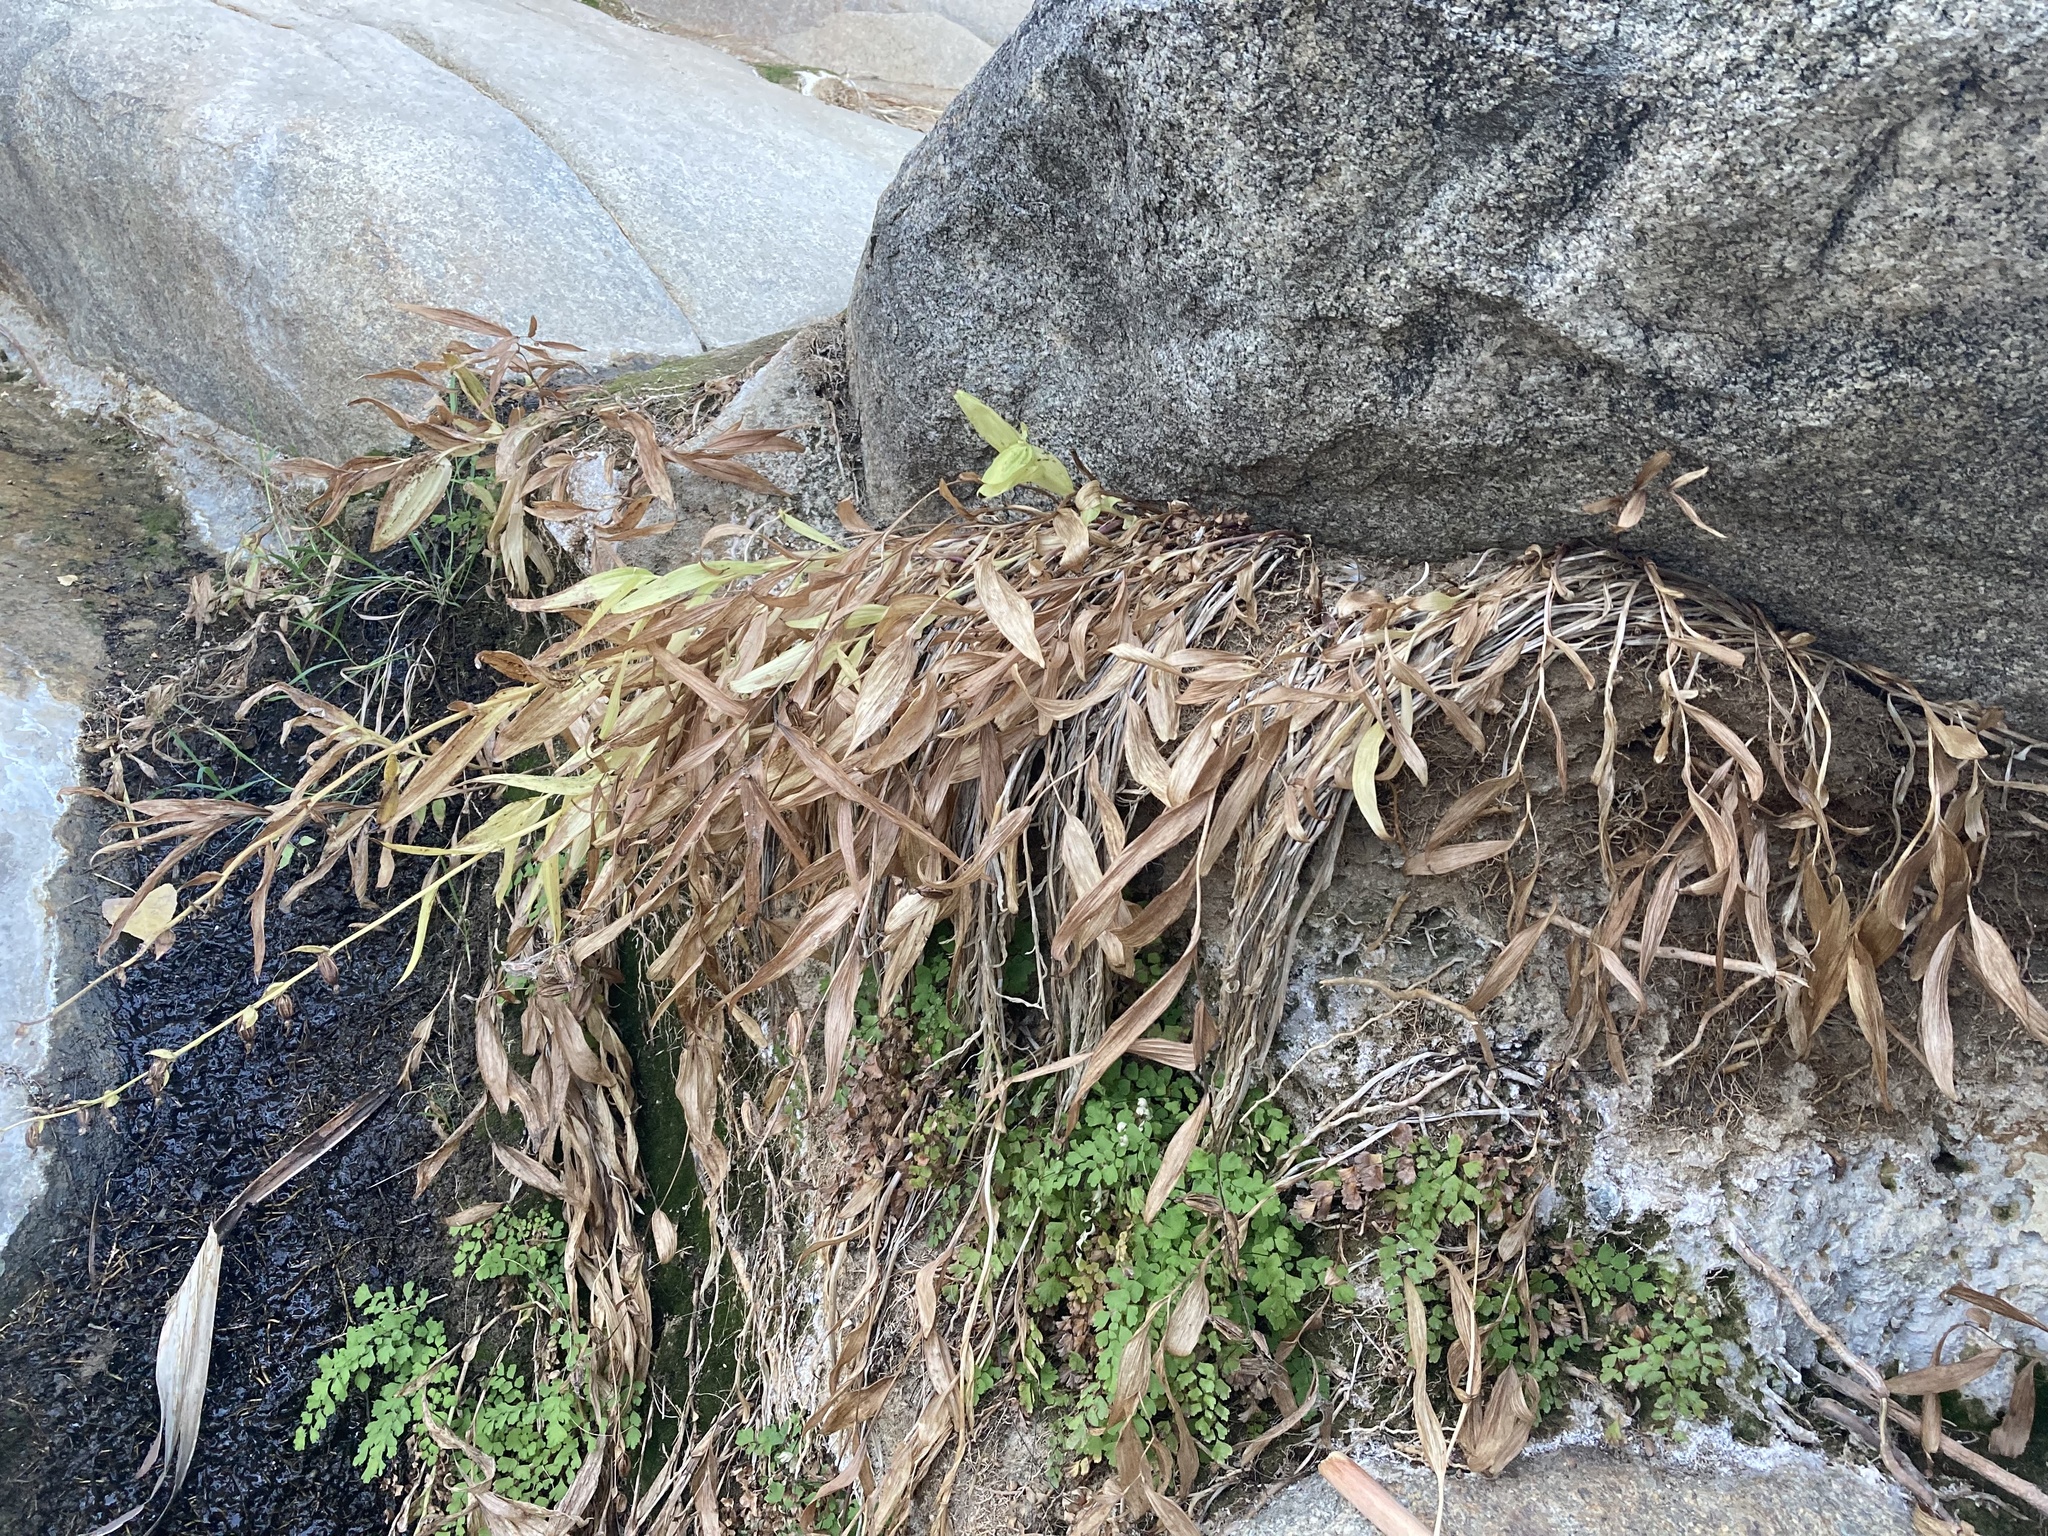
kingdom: Plantae
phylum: Tracheophyta
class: Liliopsida
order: Asparagales
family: Orchidaceae
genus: Epipactis
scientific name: Epipactis gigantea
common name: Chatterbox
